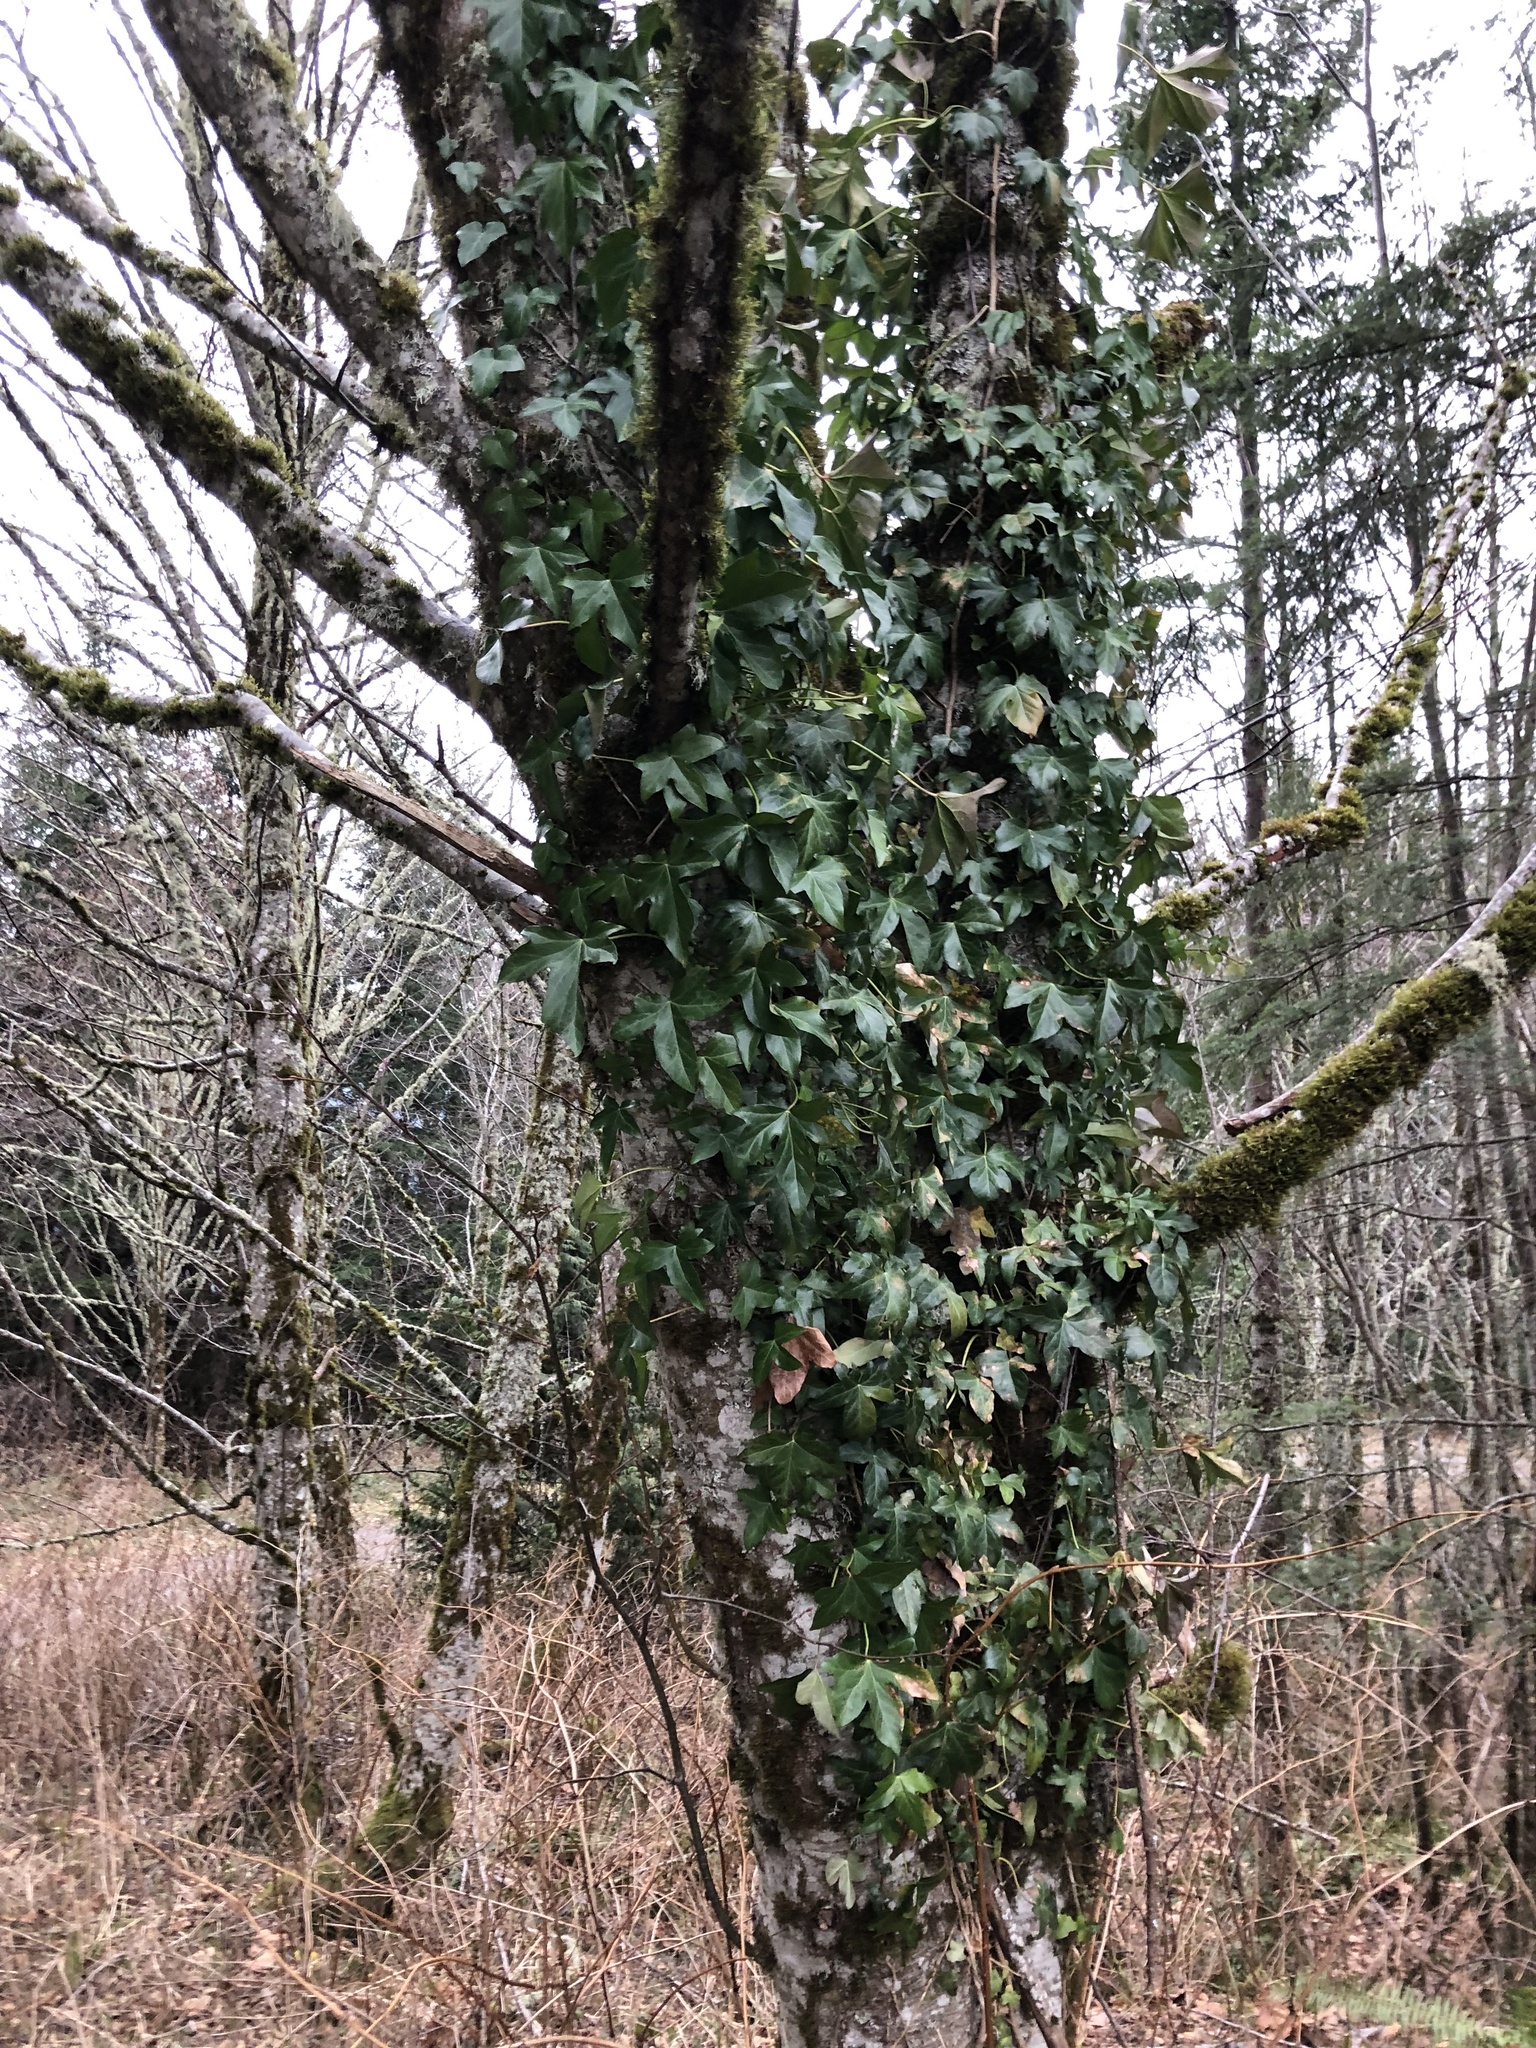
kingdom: Plantae
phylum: Tracheophyta
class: Magnoliopsida
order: Apiales
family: Araliaceae
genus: Hedera
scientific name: Hedera helix
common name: Ivy
